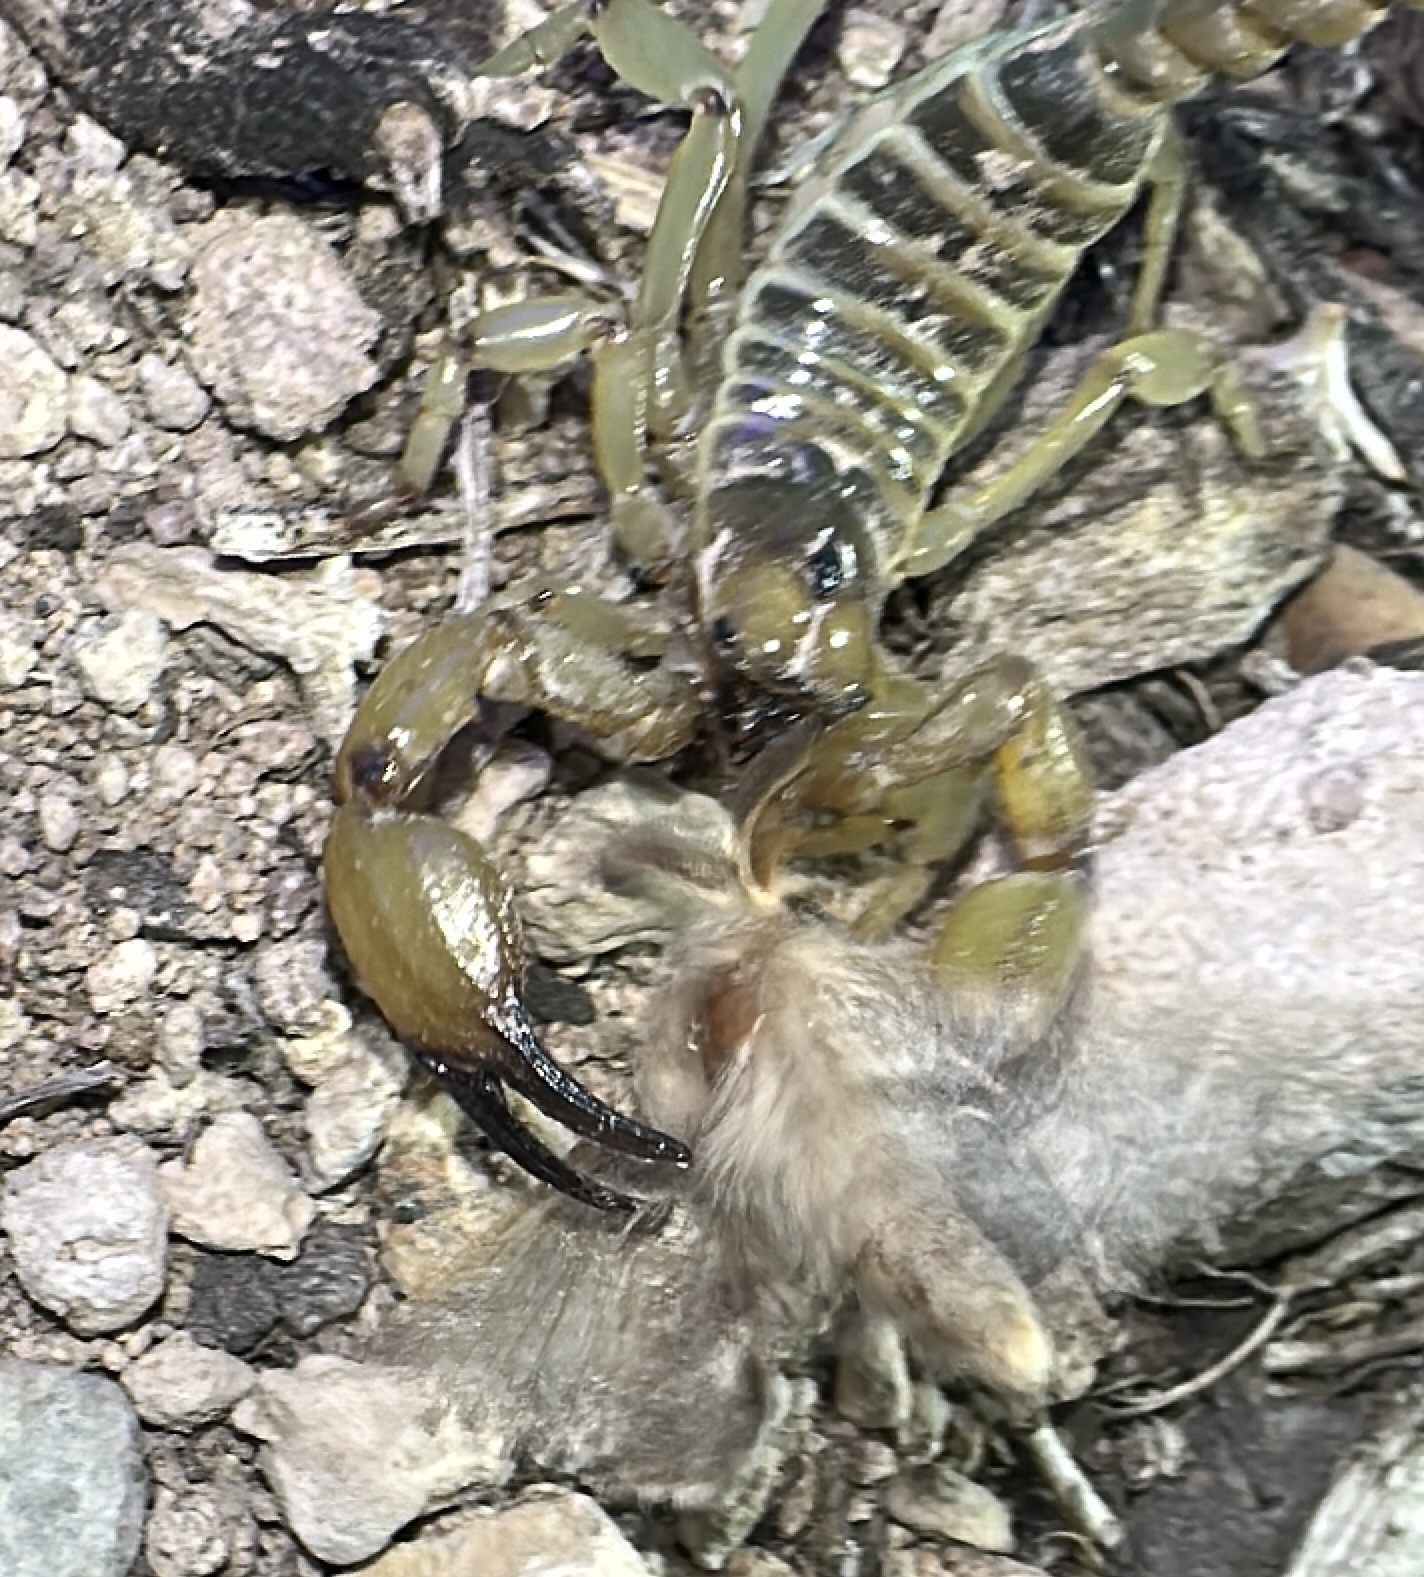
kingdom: Animalia
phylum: Arthropoda
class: Arachnida
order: Scorpiones
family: Chactidae
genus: Anuroctonus
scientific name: Anuroctonus phaiodactylus
